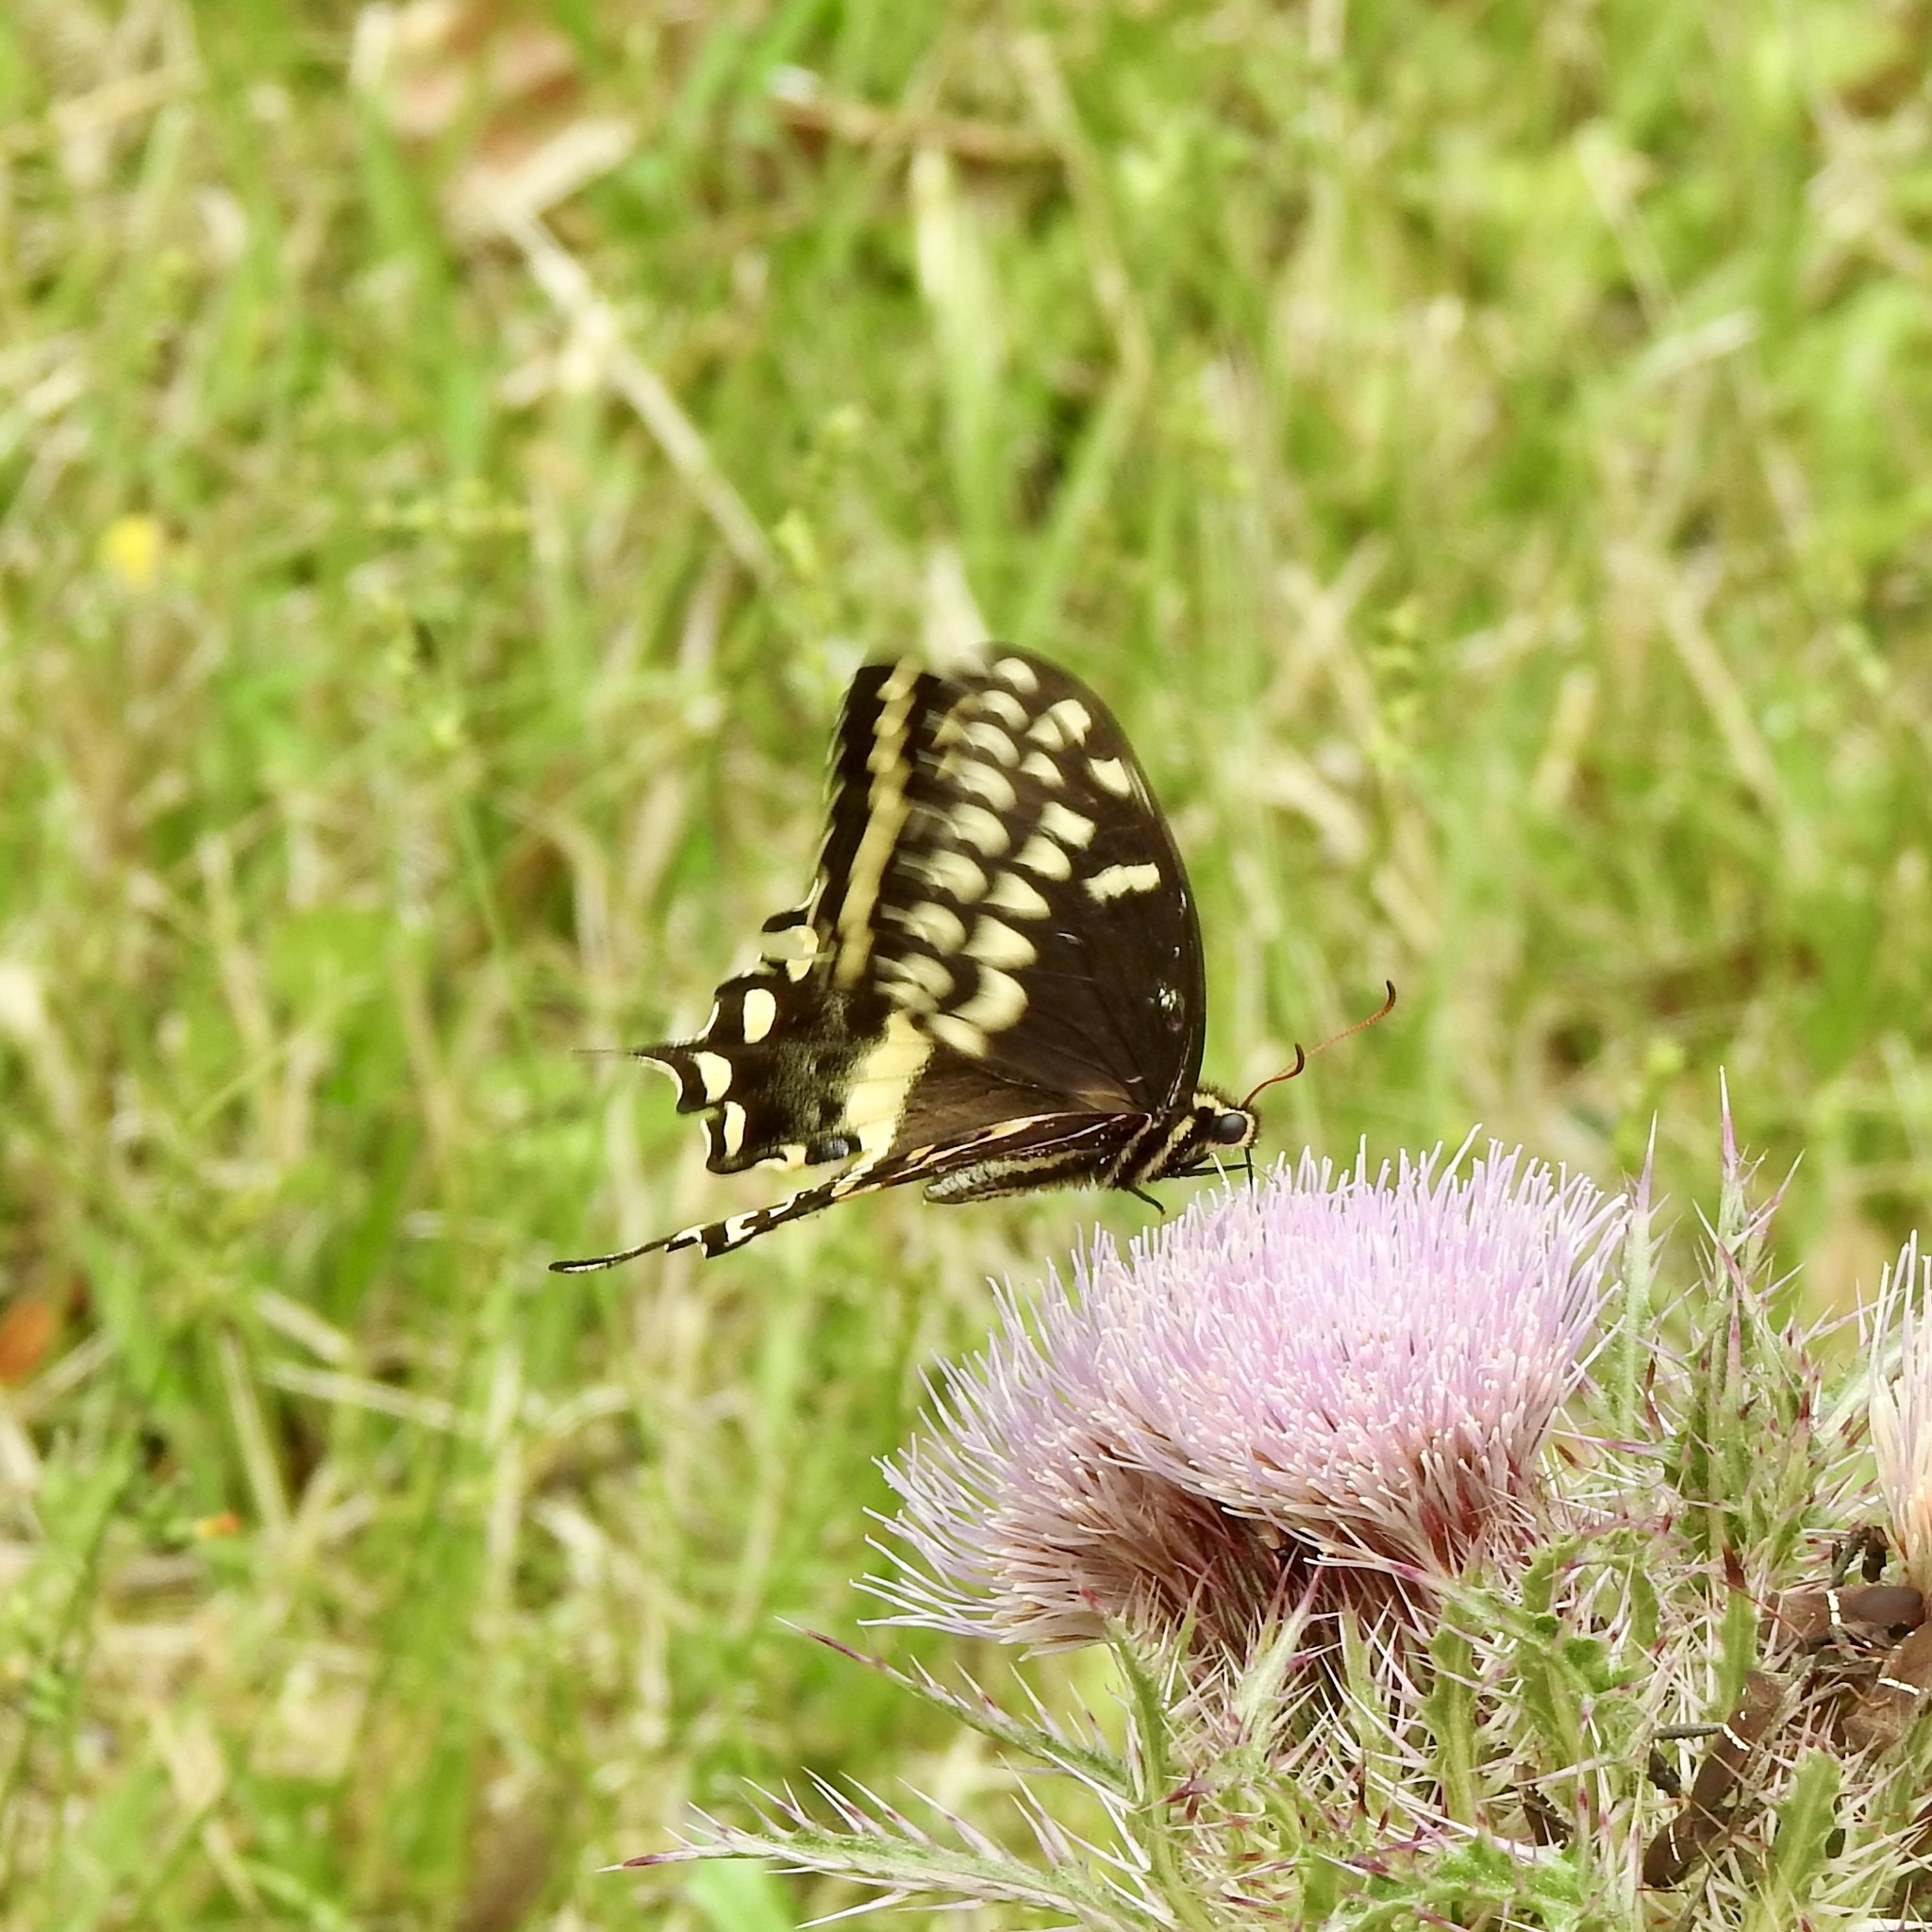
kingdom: Animalia
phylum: Arthropoda
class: Insecta
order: Lepidoptera
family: Papilionidae
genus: Papilio
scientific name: Papilio palamedes
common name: Palamedes swallowtail
